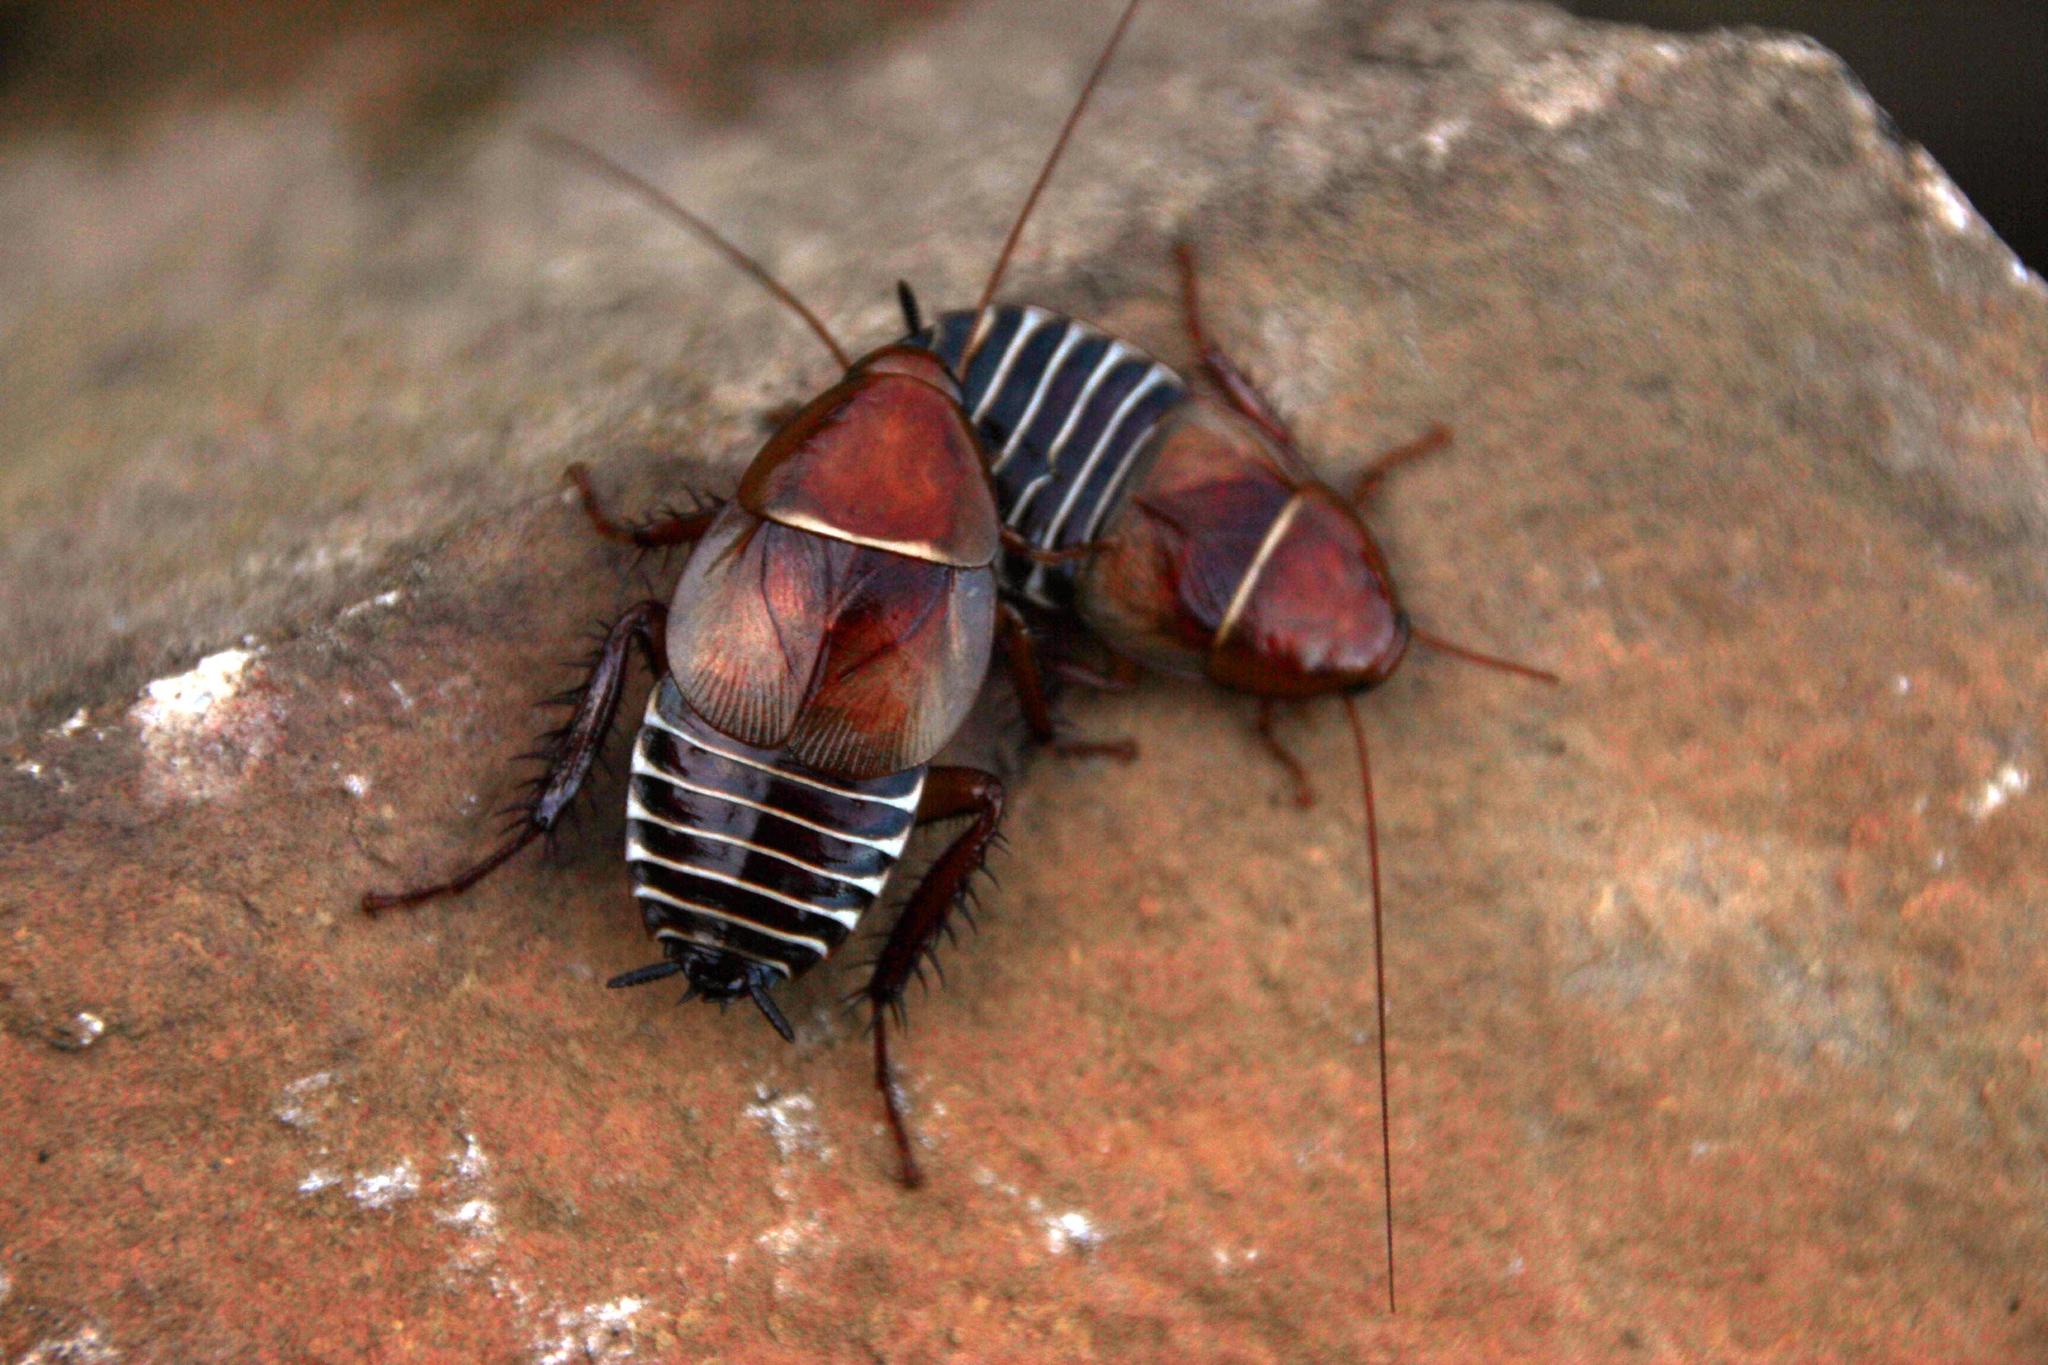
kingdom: Animalia
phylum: Arthropoda
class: Insecta
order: Blattodea
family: Ectobiidae
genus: Temnopteryx
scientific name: Temnopteryx phalerata
